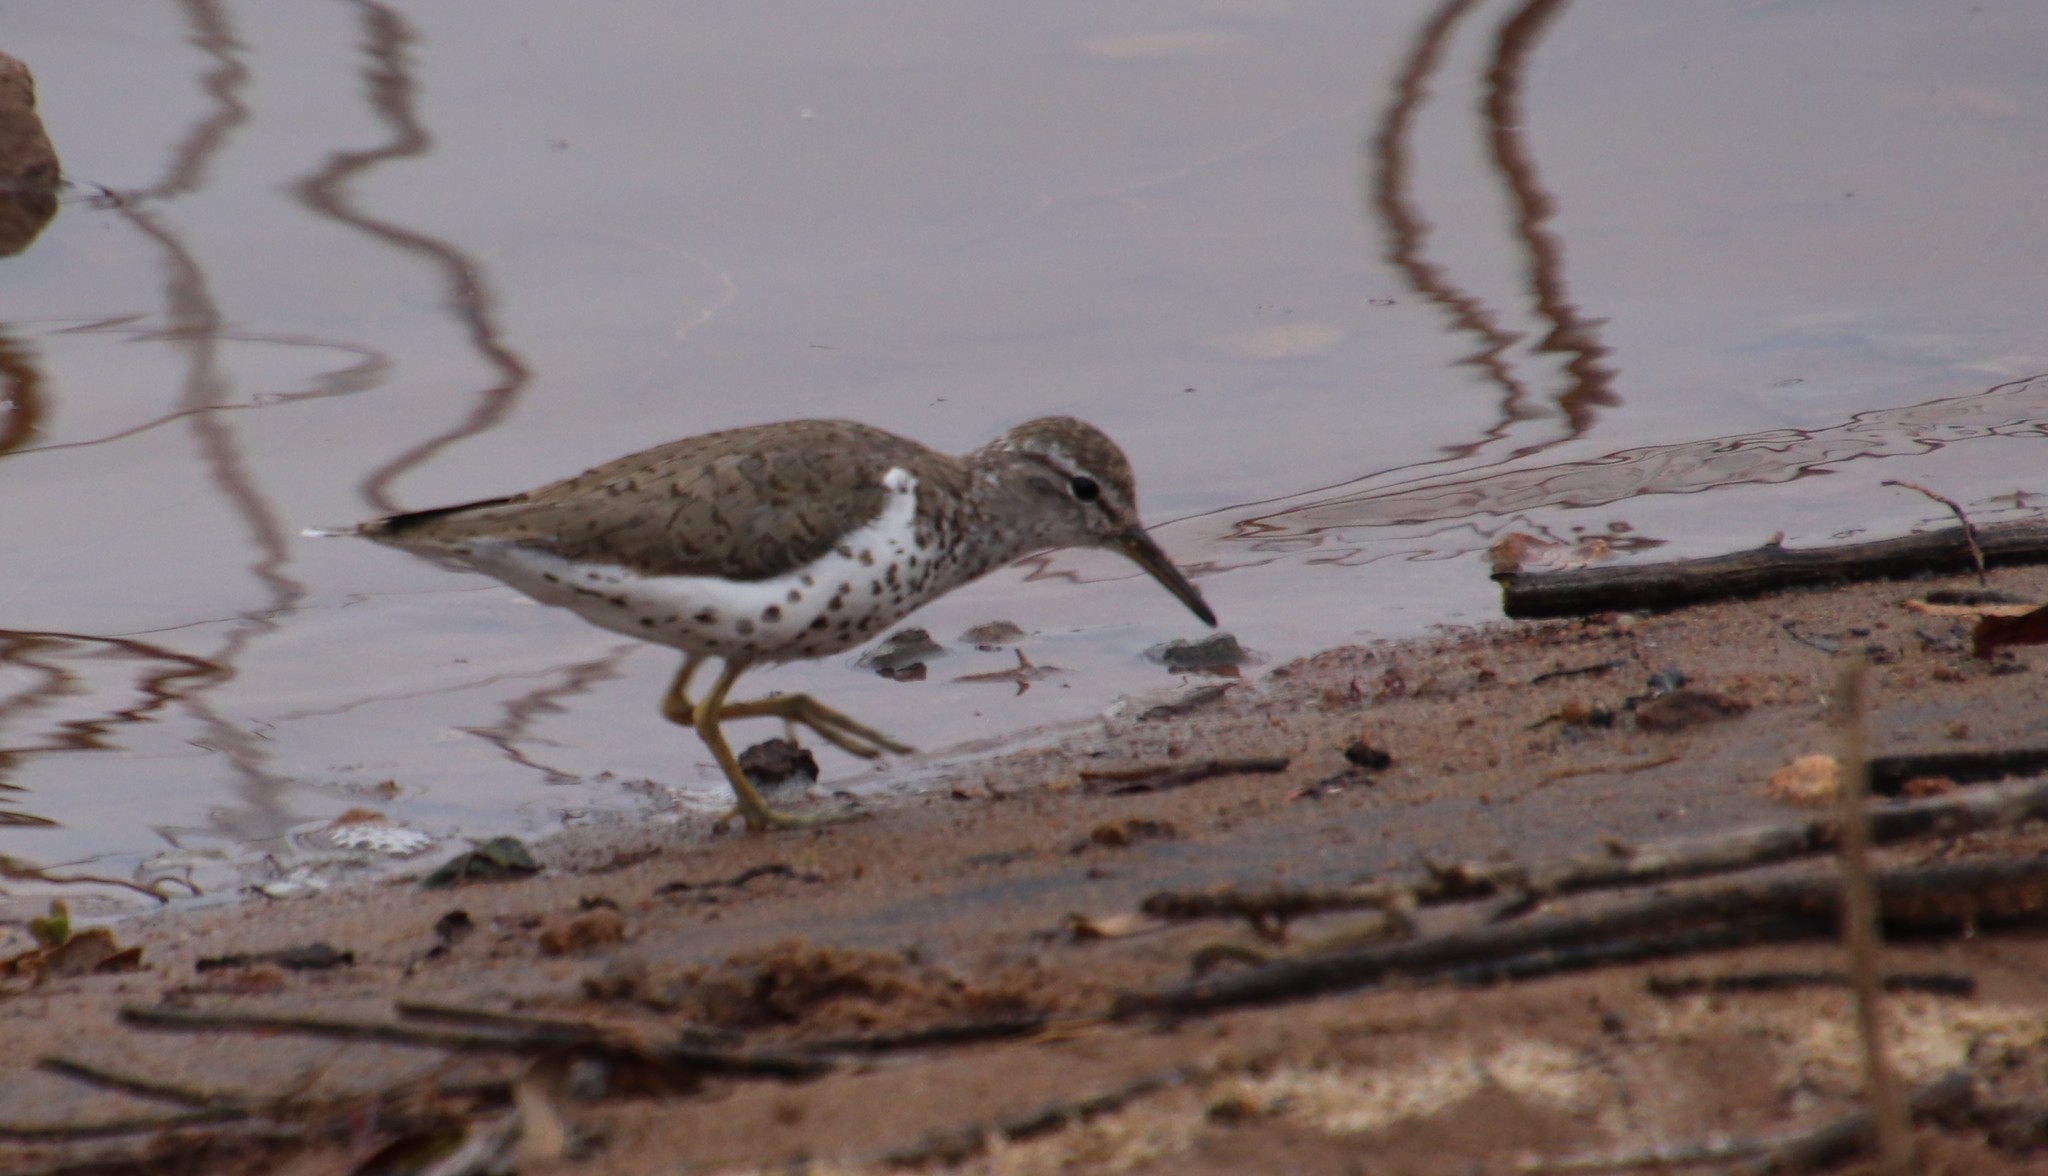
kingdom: Animalia
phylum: Chordata
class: Aves
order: Charadriiformes
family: Scolopacidae
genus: Actitis
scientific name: Actitis macularius
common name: Spotted sandpiper
